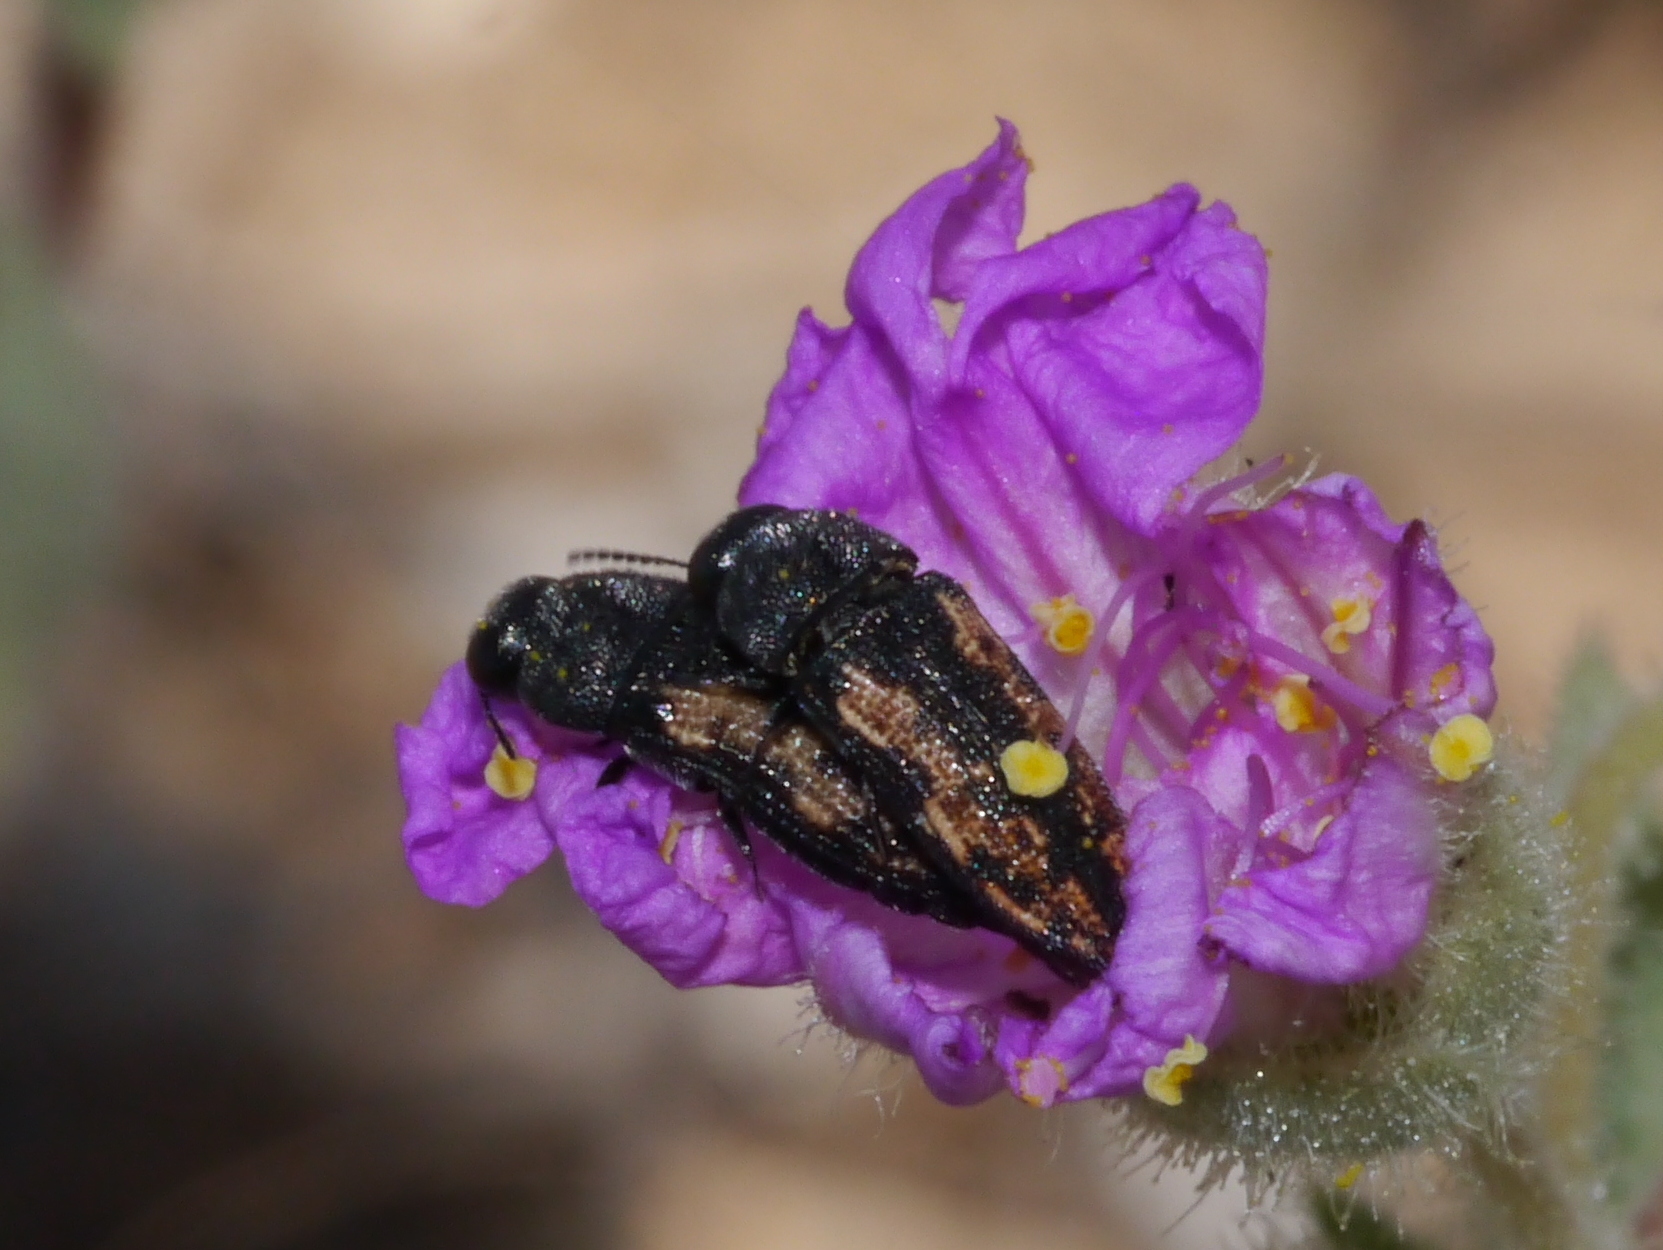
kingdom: Animalia
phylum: Arthropoda
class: Insecta
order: Coleoptera
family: Buprestidae
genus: Acmaeodera
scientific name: Acmaeodera parkeri
